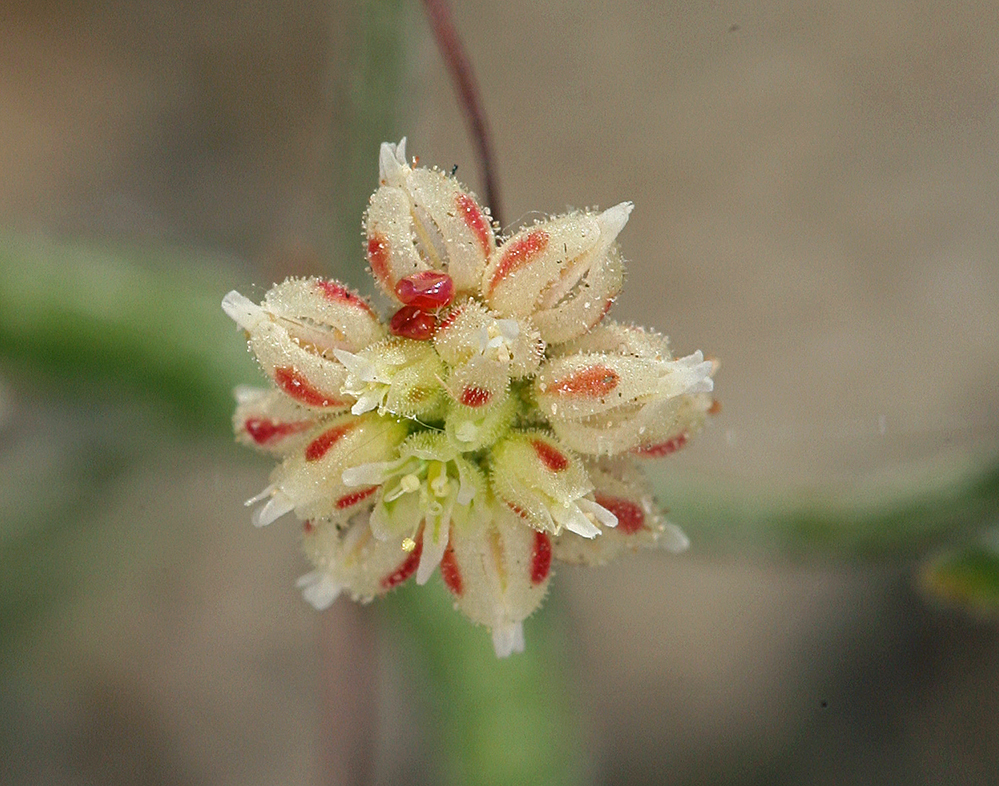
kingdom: Plantae
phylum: Tracheophyta
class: Magnoliopsida
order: Caryophyllales
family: Polygonaceae
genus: Eriogonum
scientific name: Eriogonum maculatum
